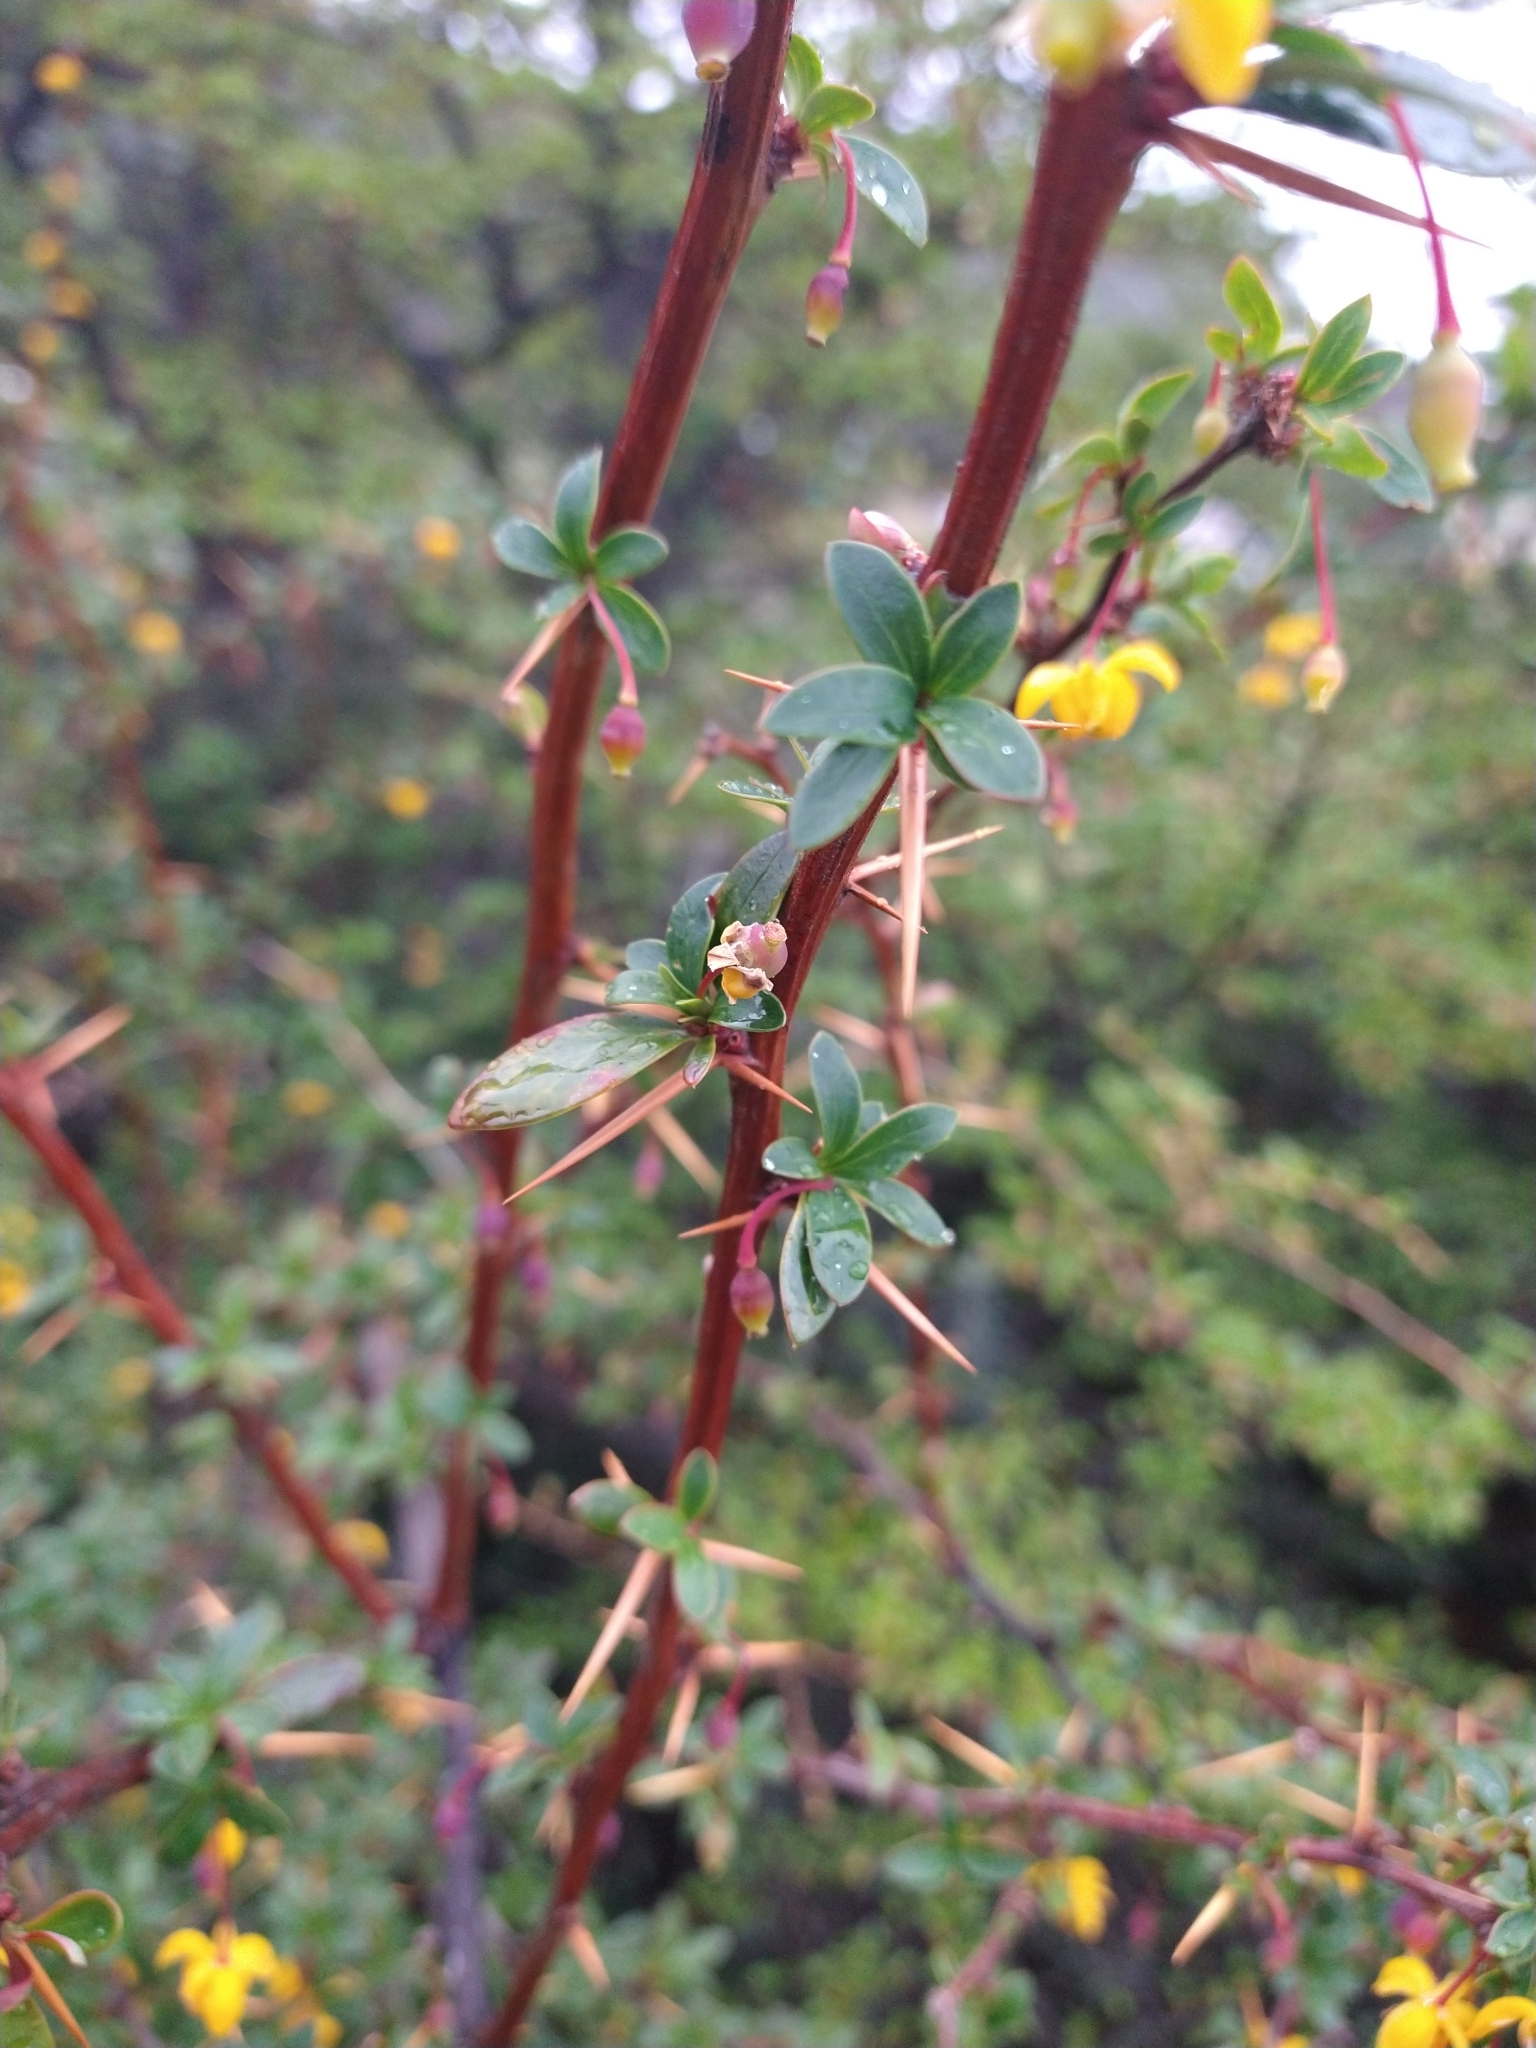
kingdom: Plantae
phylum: Tracheophyta
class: Magnoliopsida
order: Ranunculales
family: Berberidaceae
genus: Berberis
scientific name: Berberis microphylla
